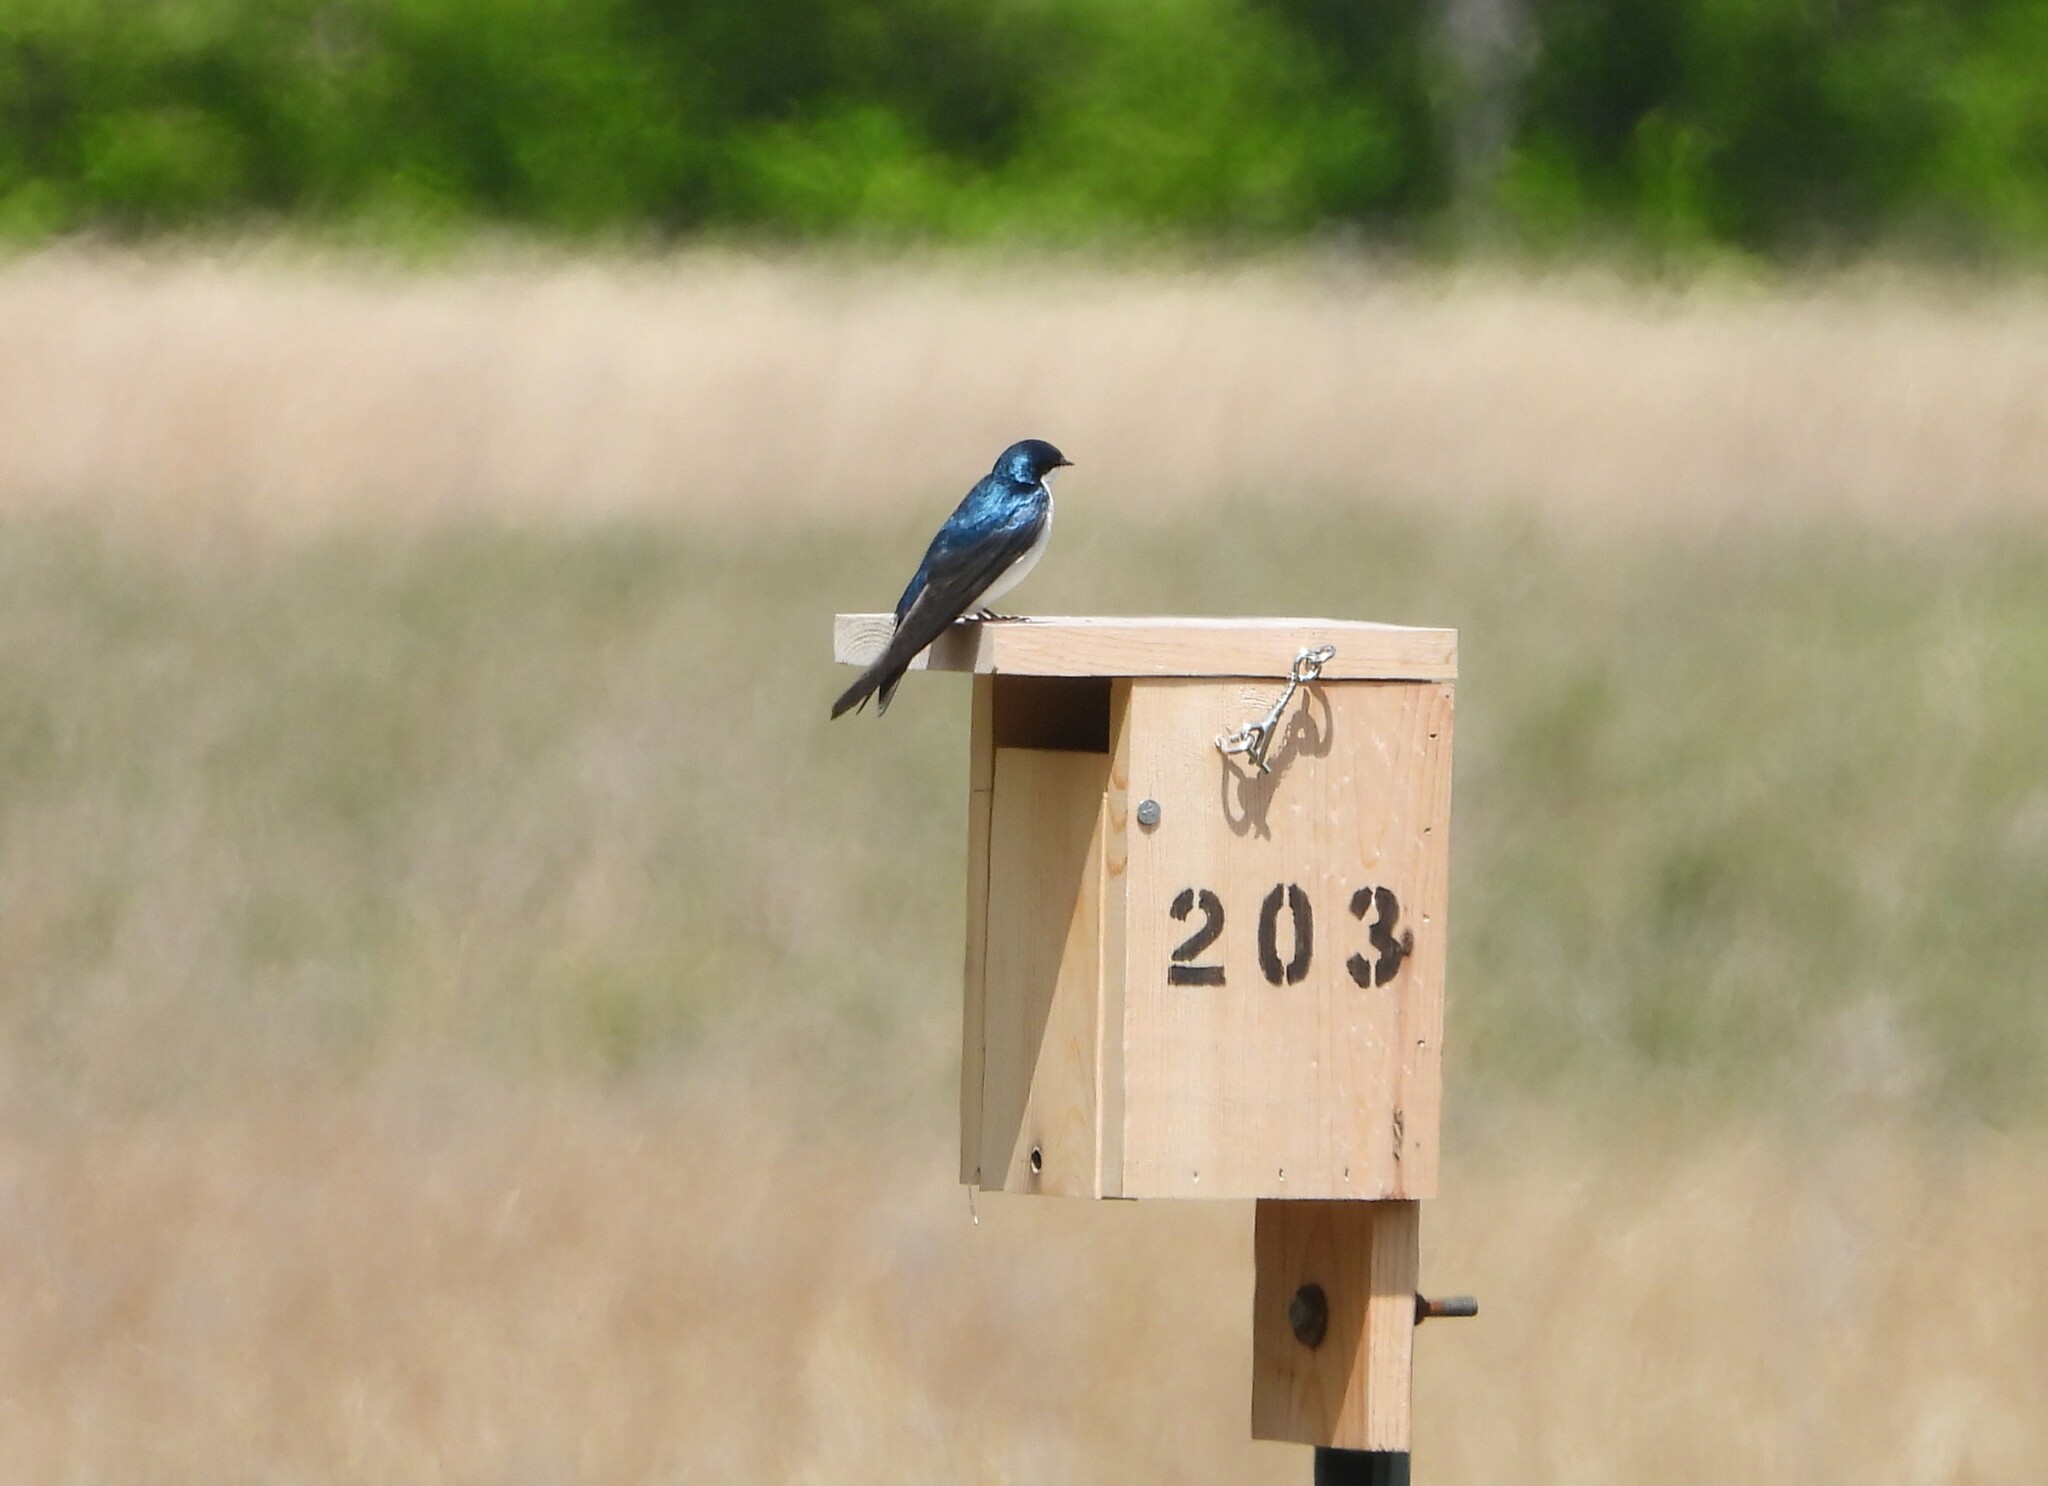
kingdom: Animalia
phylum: Chordata
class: Aves
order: Passeriformes
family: Hirundinidae
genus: Tachycineta
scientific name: Tachycineta bicolor
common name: Tree swallow
